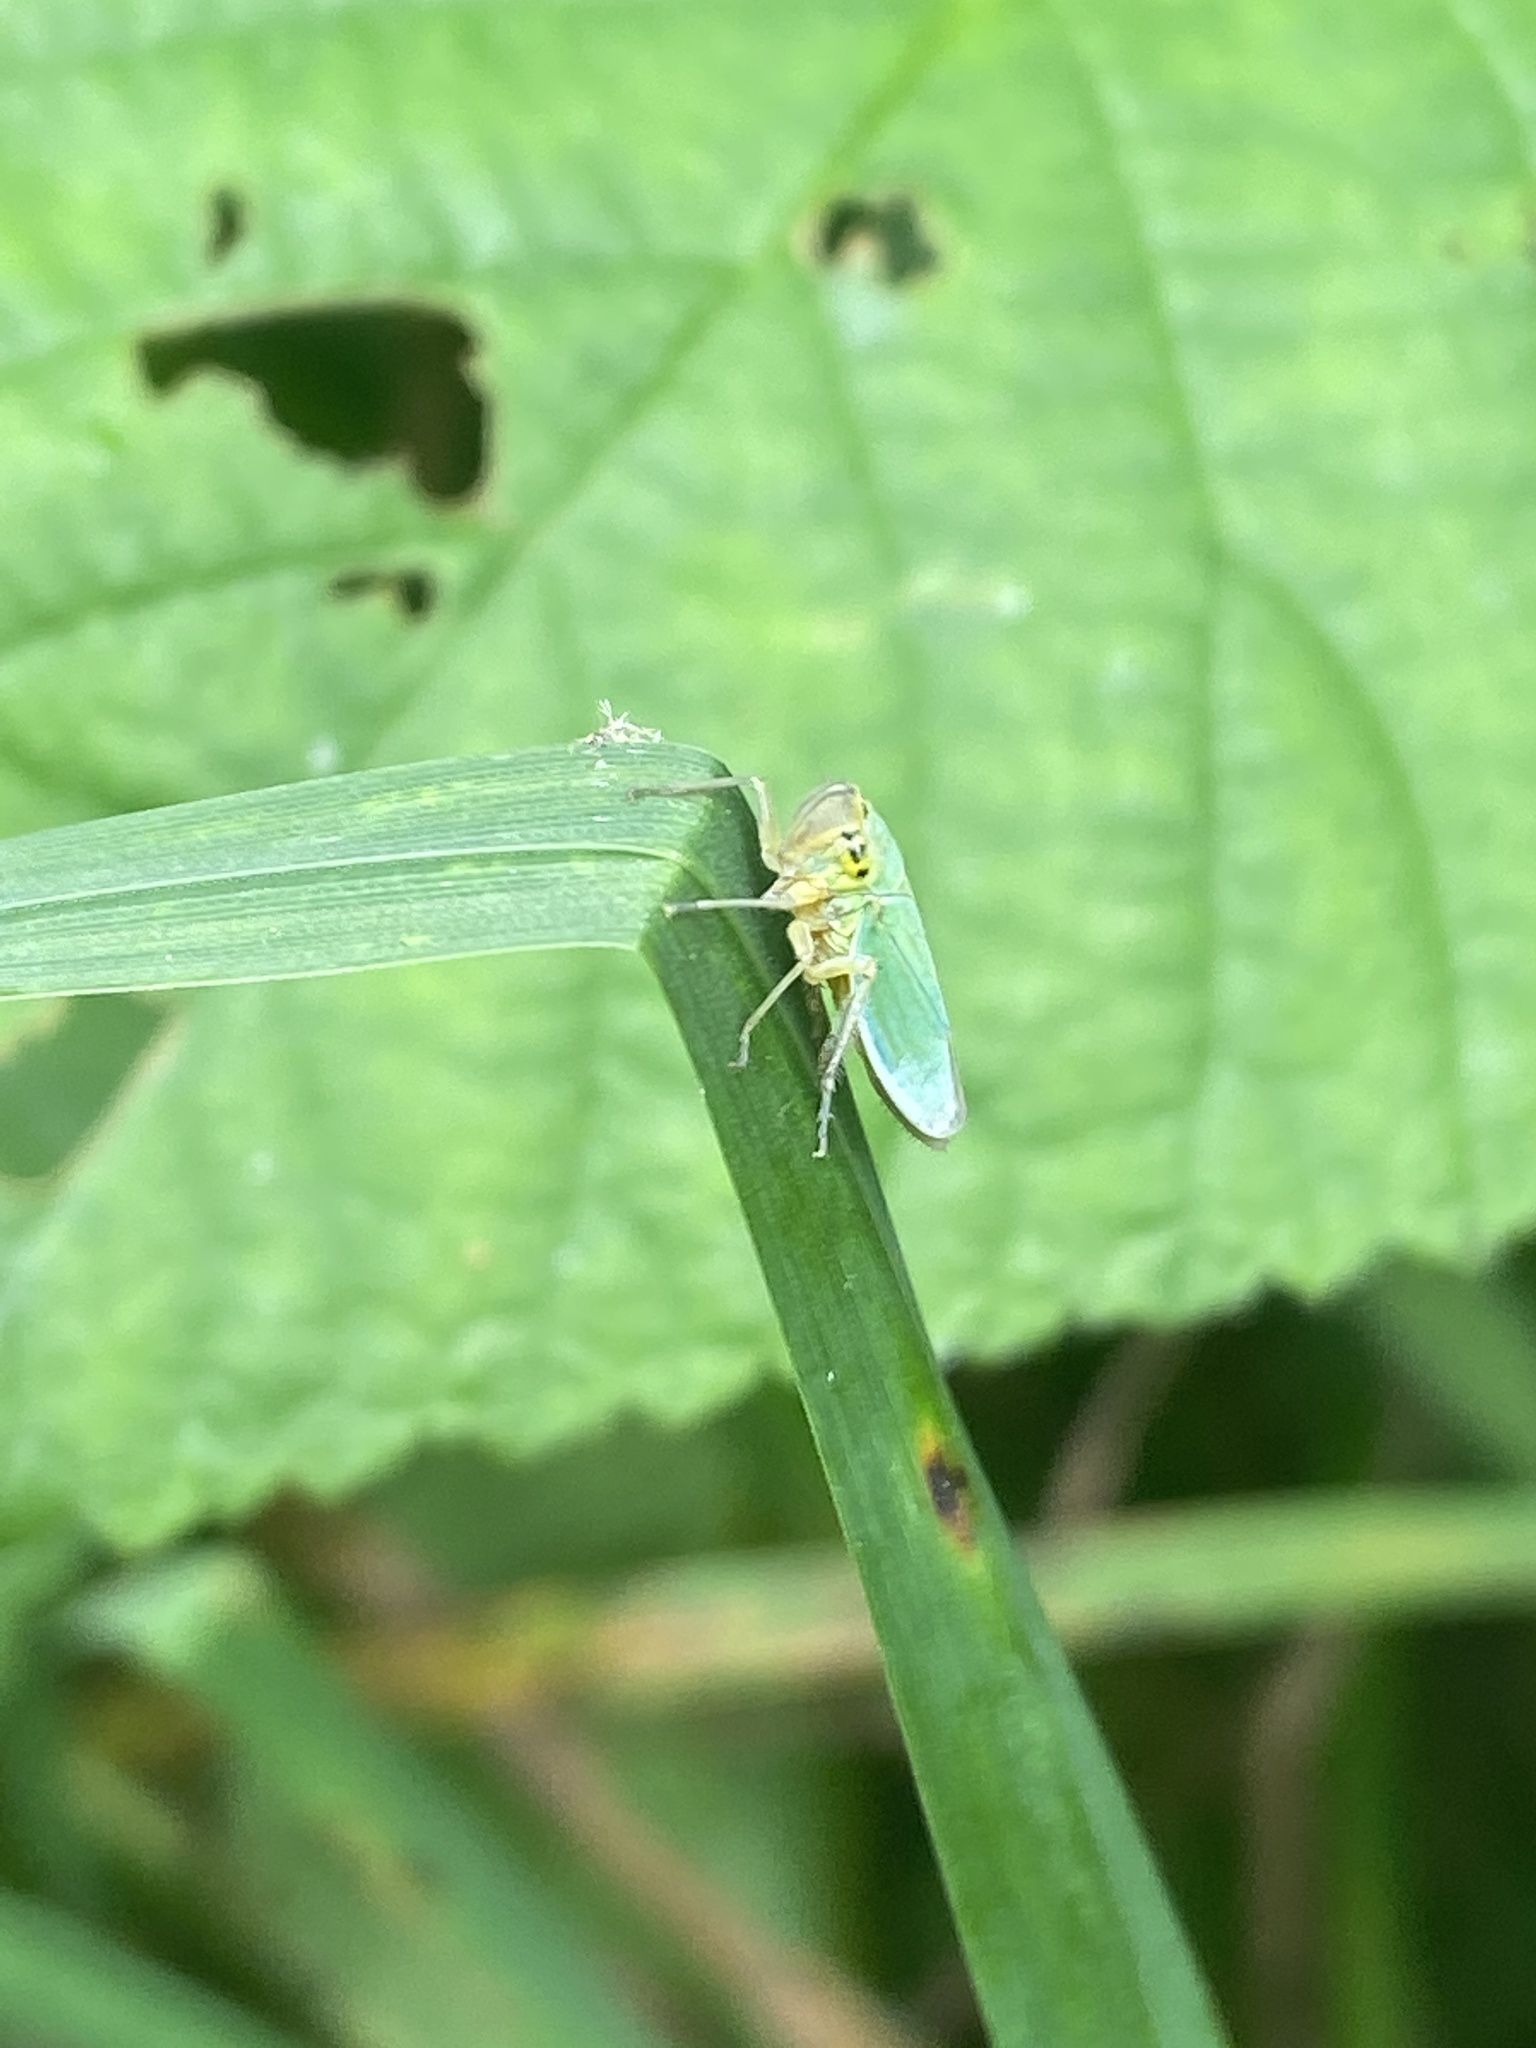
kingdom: Animalia
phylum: Arthropoda
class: Insecta
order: Hemiptera
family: Cicadellidae
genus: Cicadella
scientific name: Cicadella viridis
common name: Leafhopper
